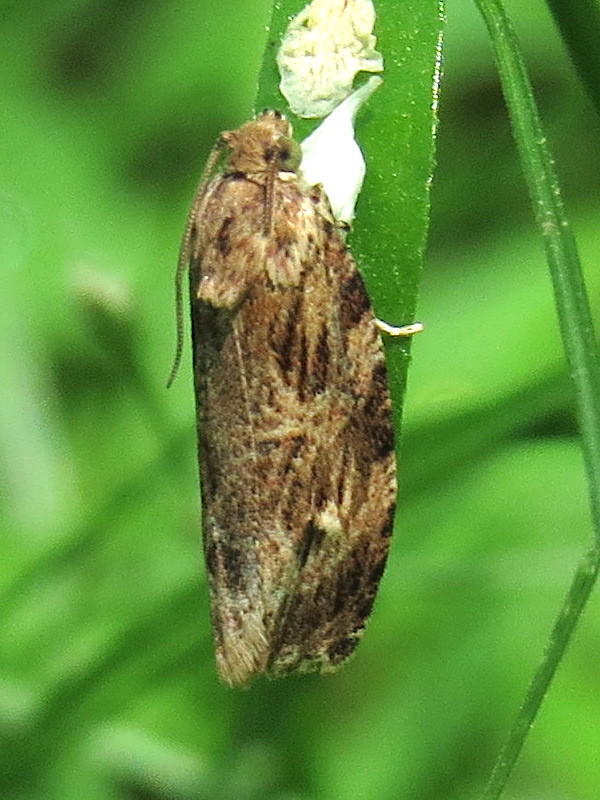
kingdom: Animalia
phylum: Arthropoda
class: Insecta
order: Lepidoptera
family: Tortricidae
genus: Phaecasiophora
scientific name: Phaecasiophora confixana
